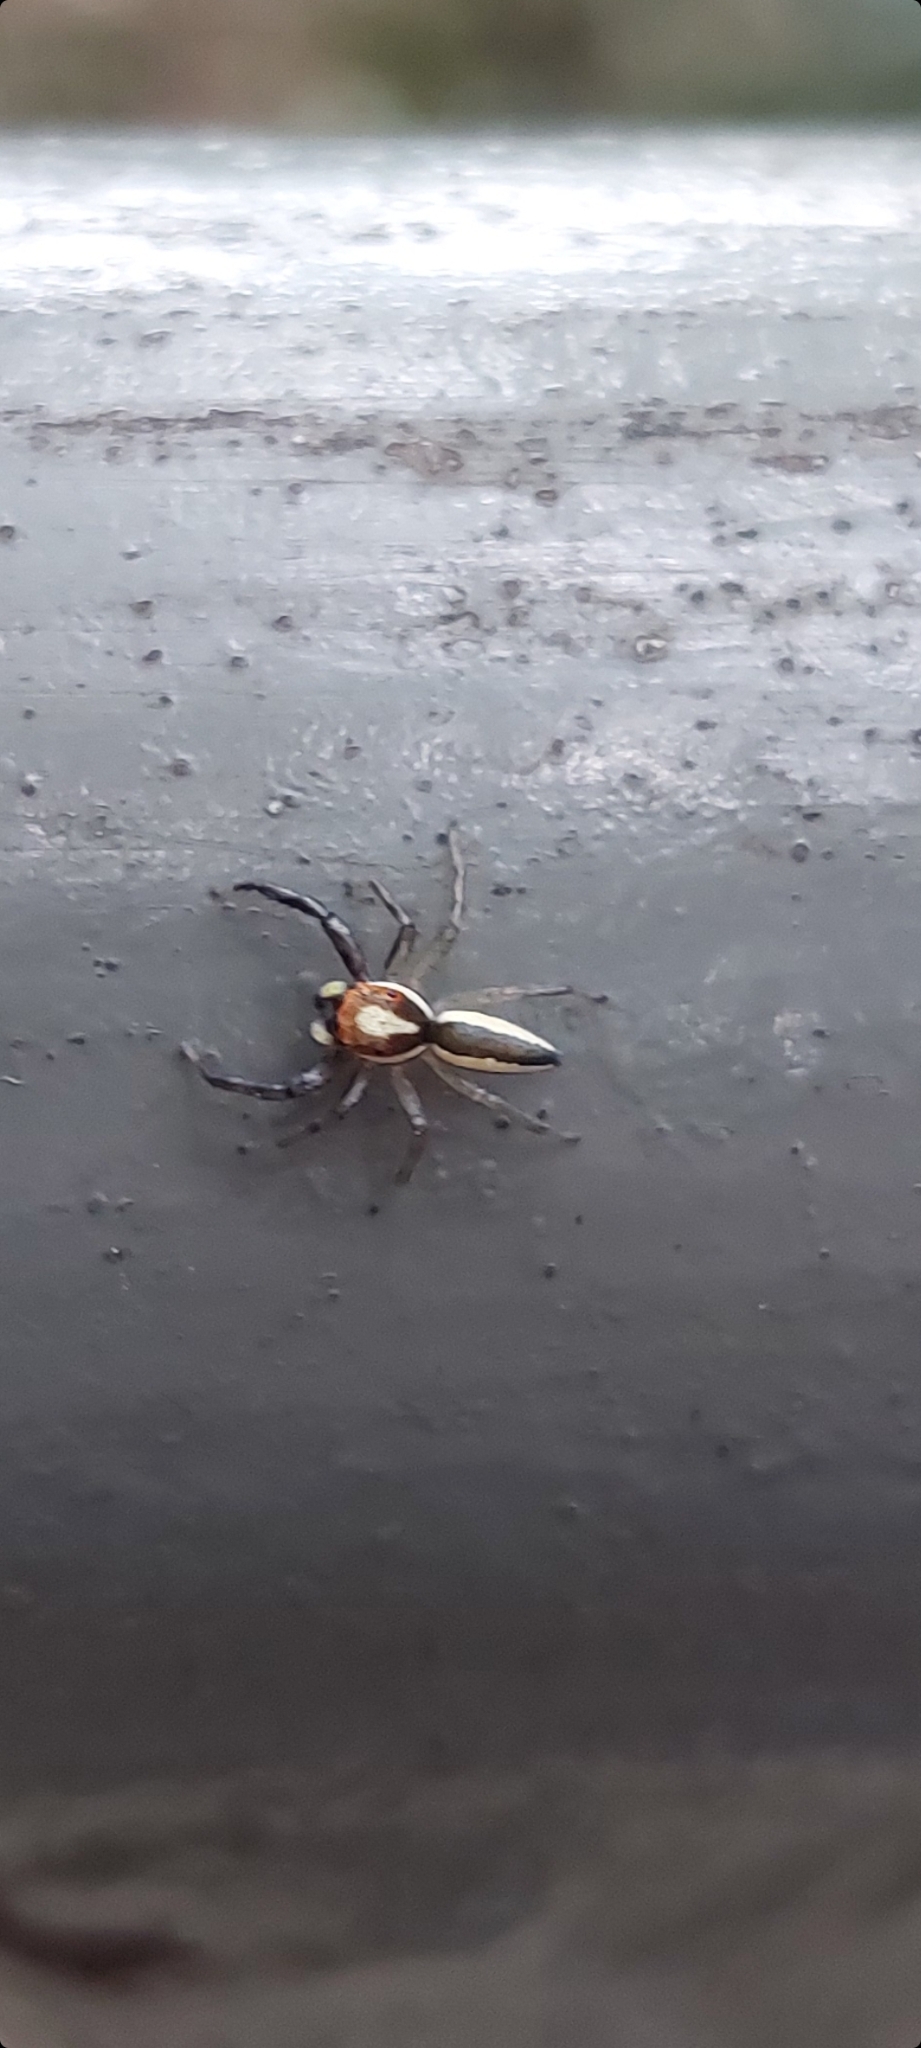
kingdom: Animalia
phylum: Arthropoda
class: Arachnida
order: Araneae
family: Salticidae
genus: Epocilla
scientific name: Epocilla blairei
